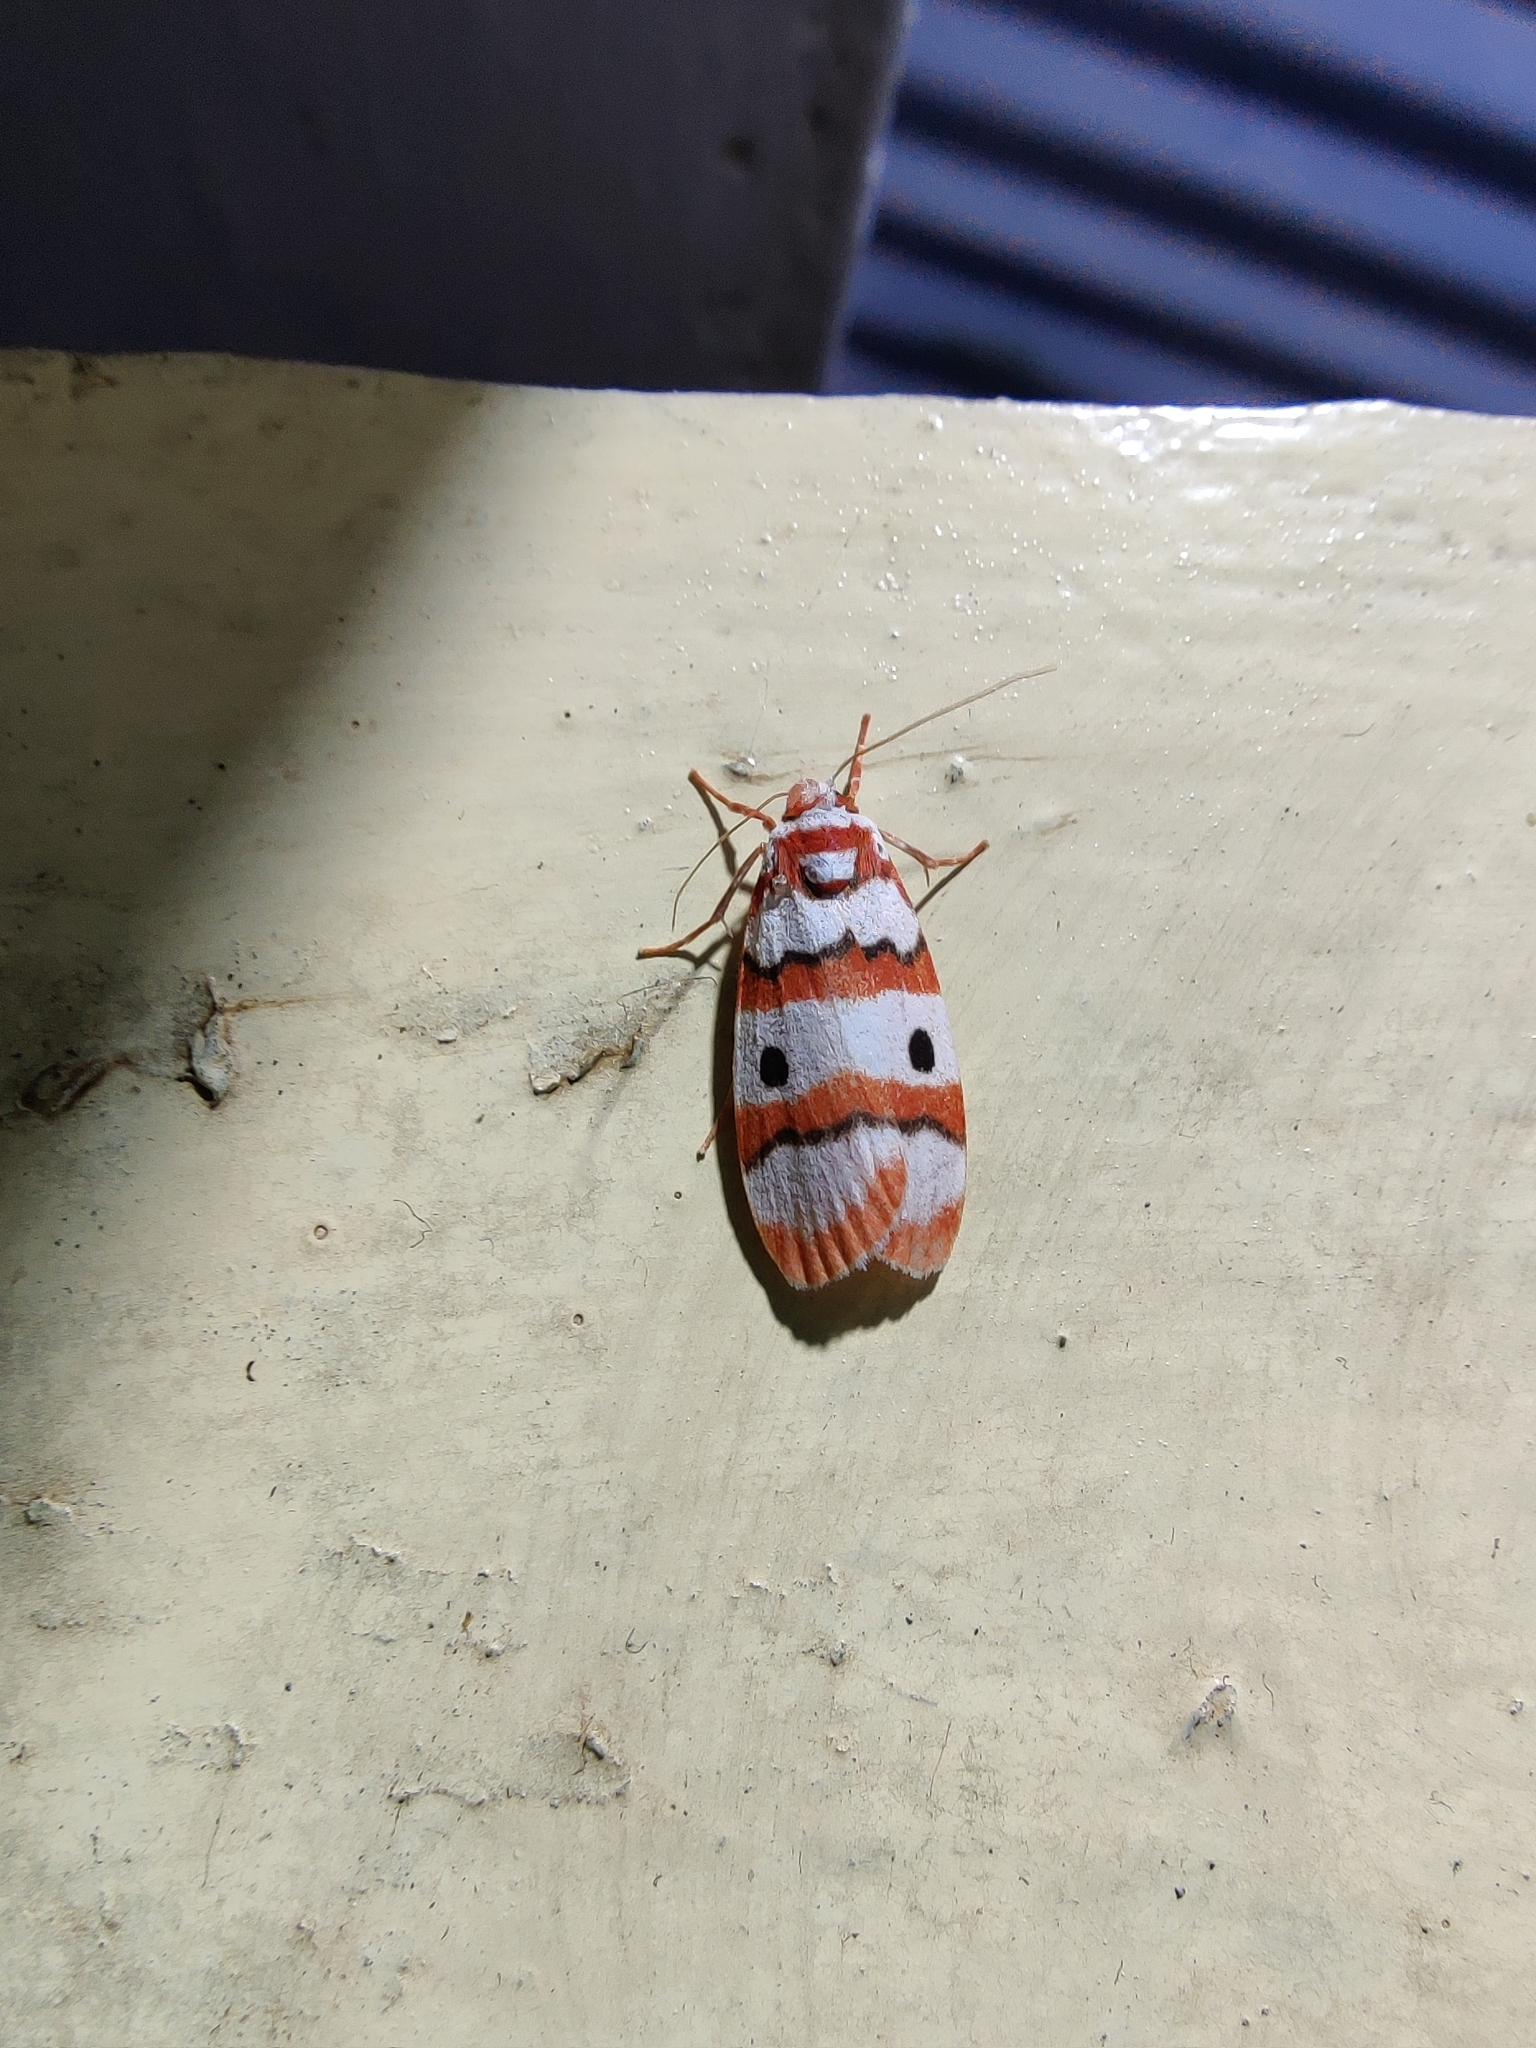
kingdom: Animalia
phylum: Arthropoda
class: Insecta
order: Lepidoptera
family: Erebidae
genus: Cyana
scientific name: Cyana bhatejai
